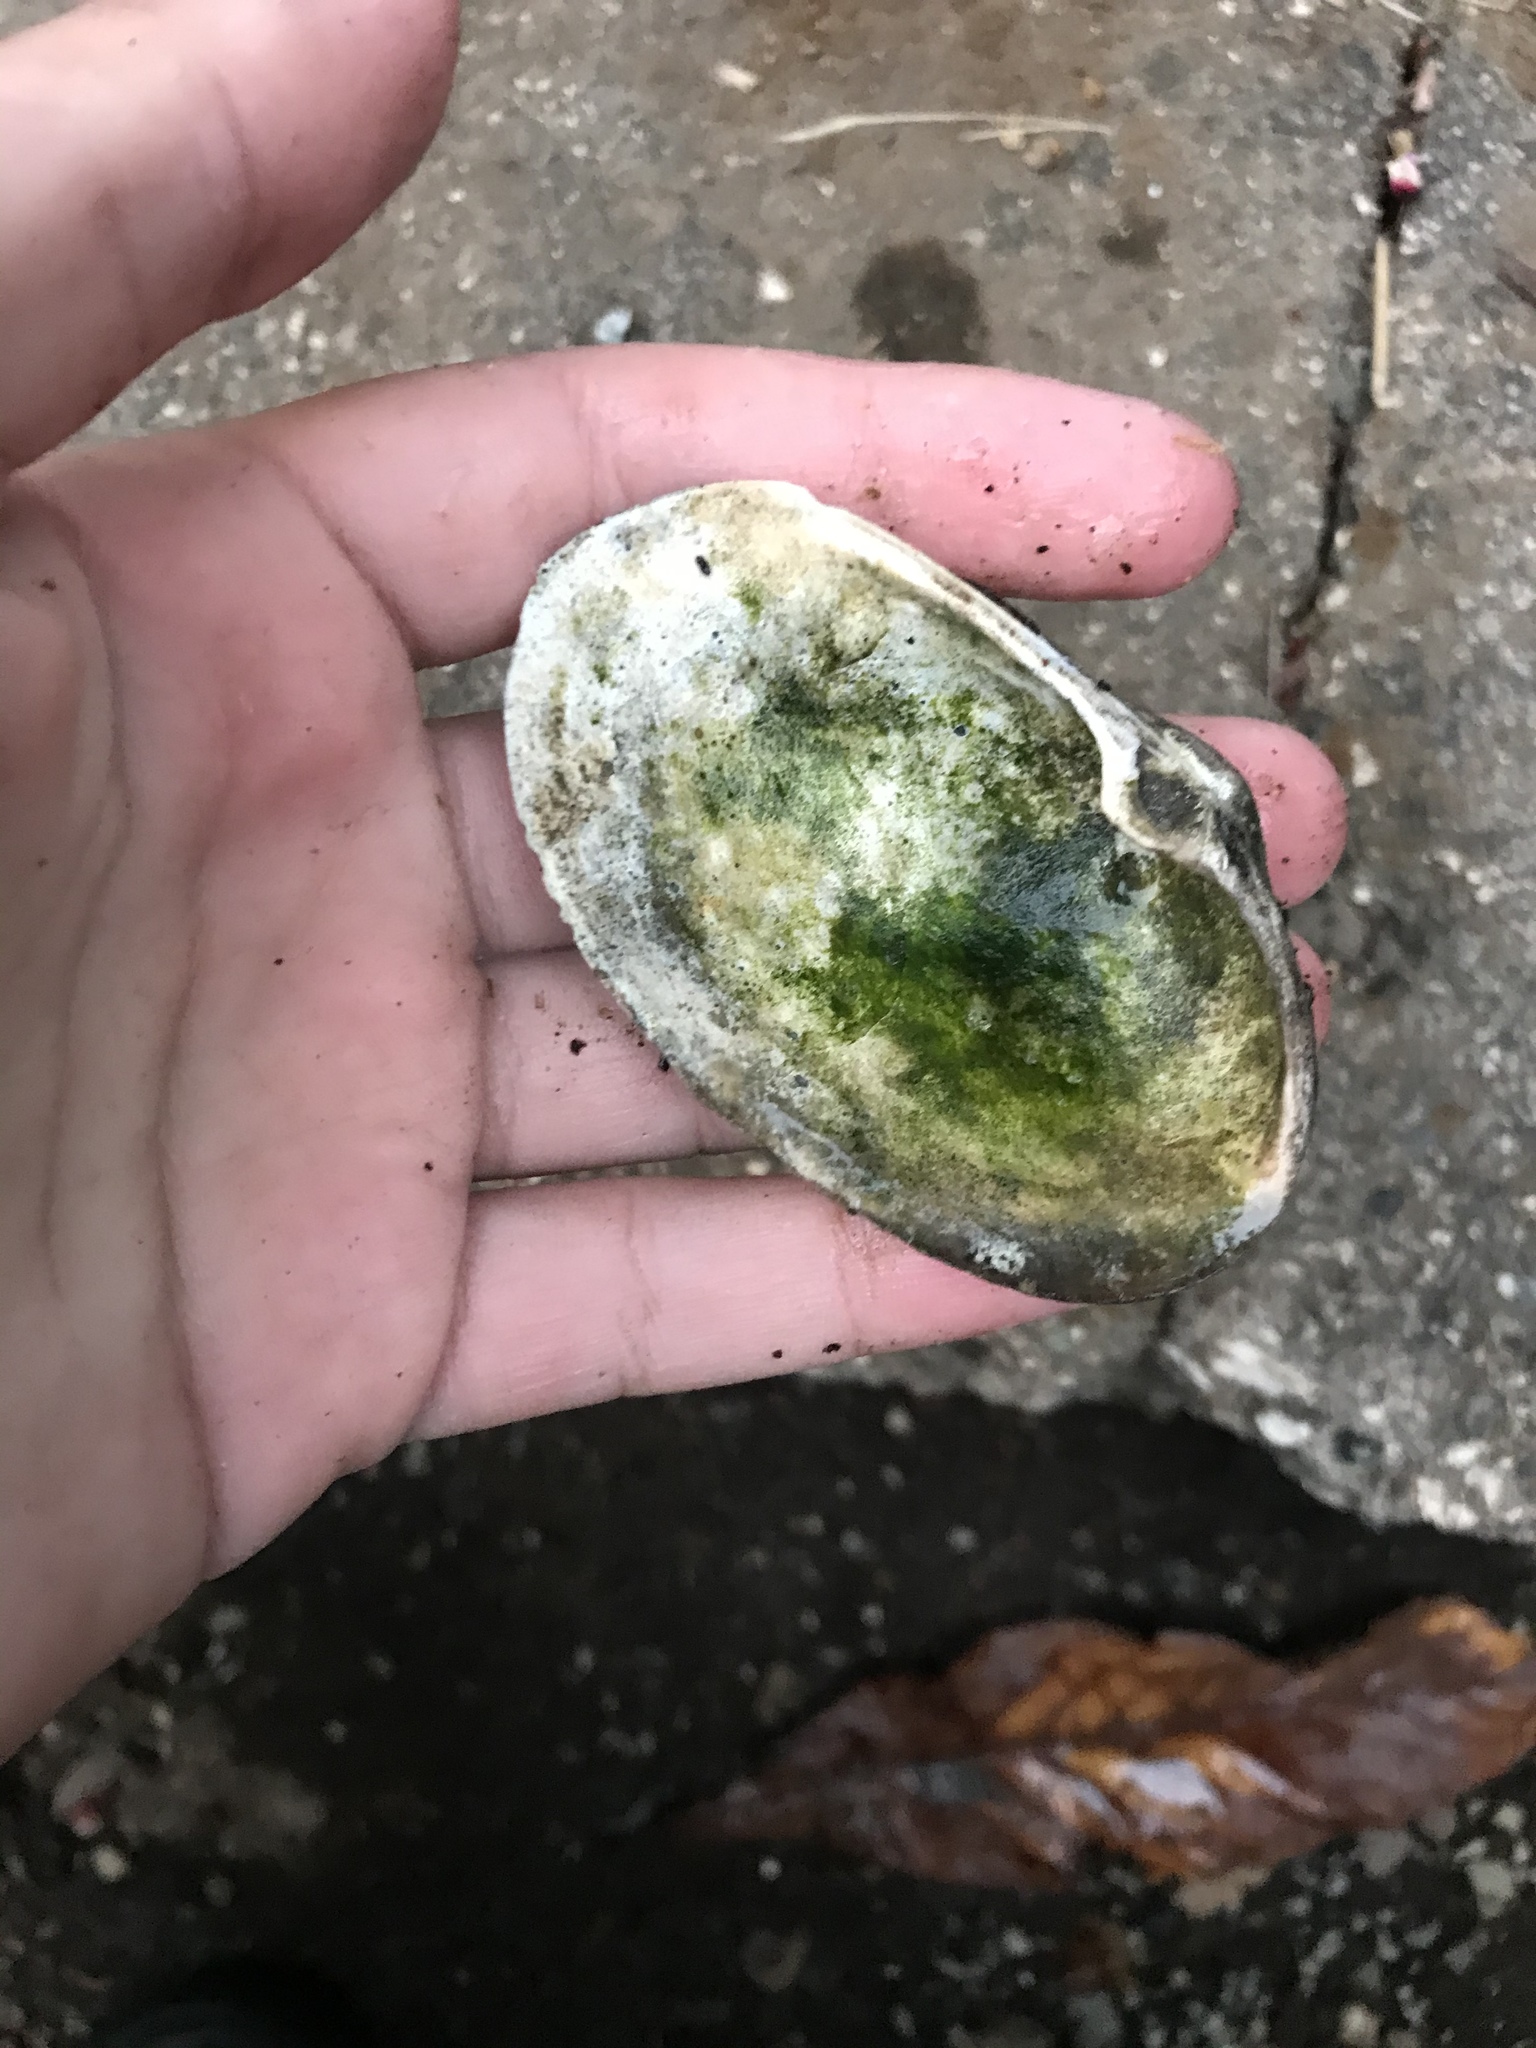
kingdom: Animalia
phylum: Mollusca
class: Bivalvia
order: Venerida
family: Mactridae
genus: Tresus
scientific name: Tresus nuttallii
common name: Pacific gaper clam
